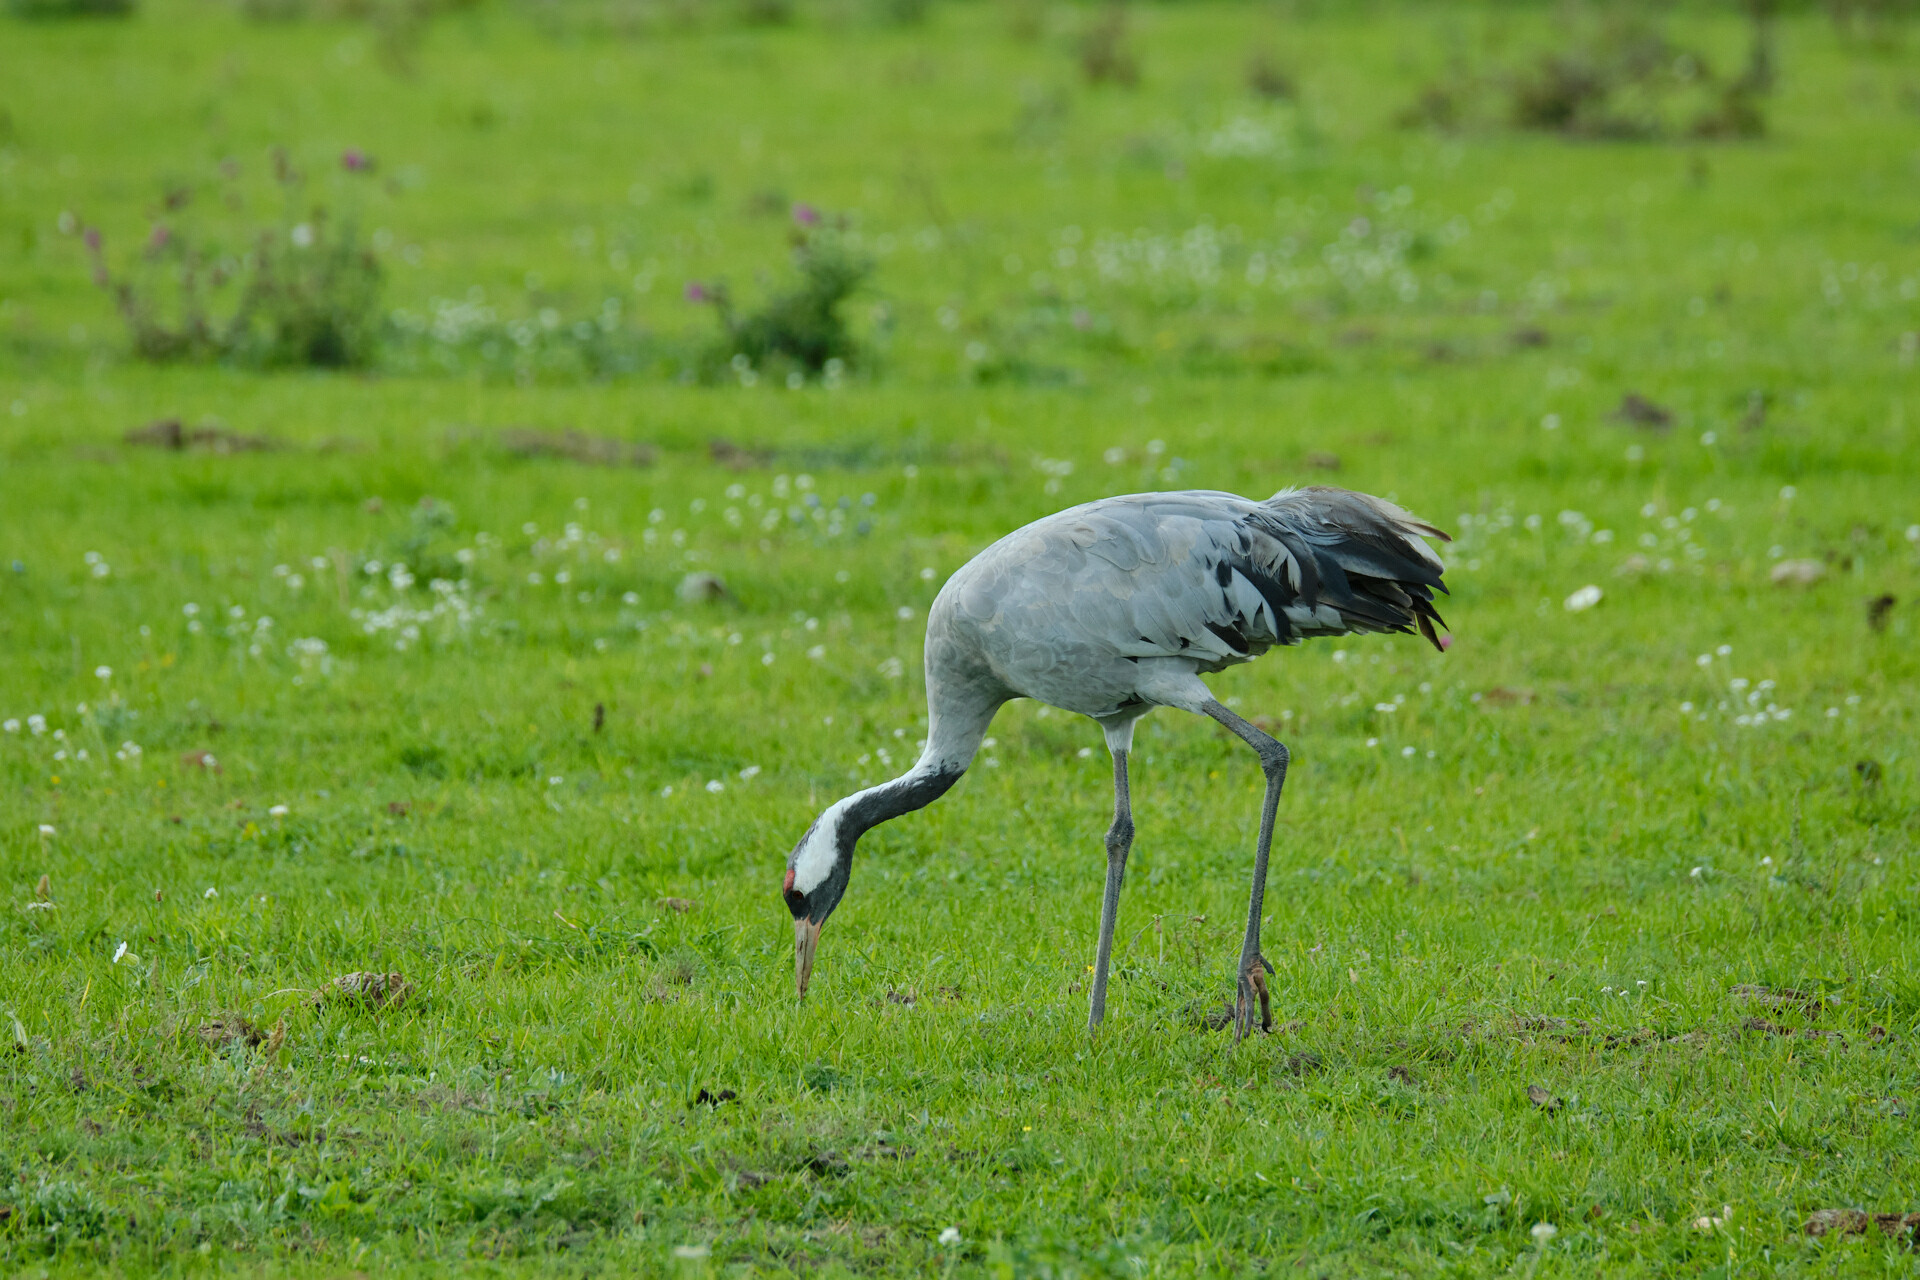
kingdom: Animalia
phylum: Chordata
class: Aves
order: Gruiformes
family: Gruidae
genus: Grus
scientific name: Grus grus
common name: Common crane
